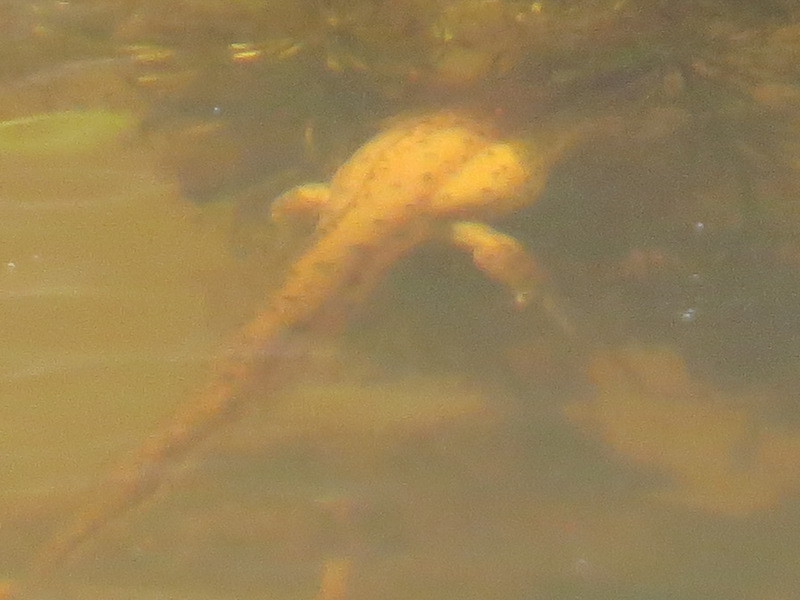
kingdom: Animalia
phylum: Chordata
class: Amphibia
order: Caudata
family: Salamandridae
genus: Notophthalmus
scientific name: Notophthalmus viridescens
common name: Eastern newt
